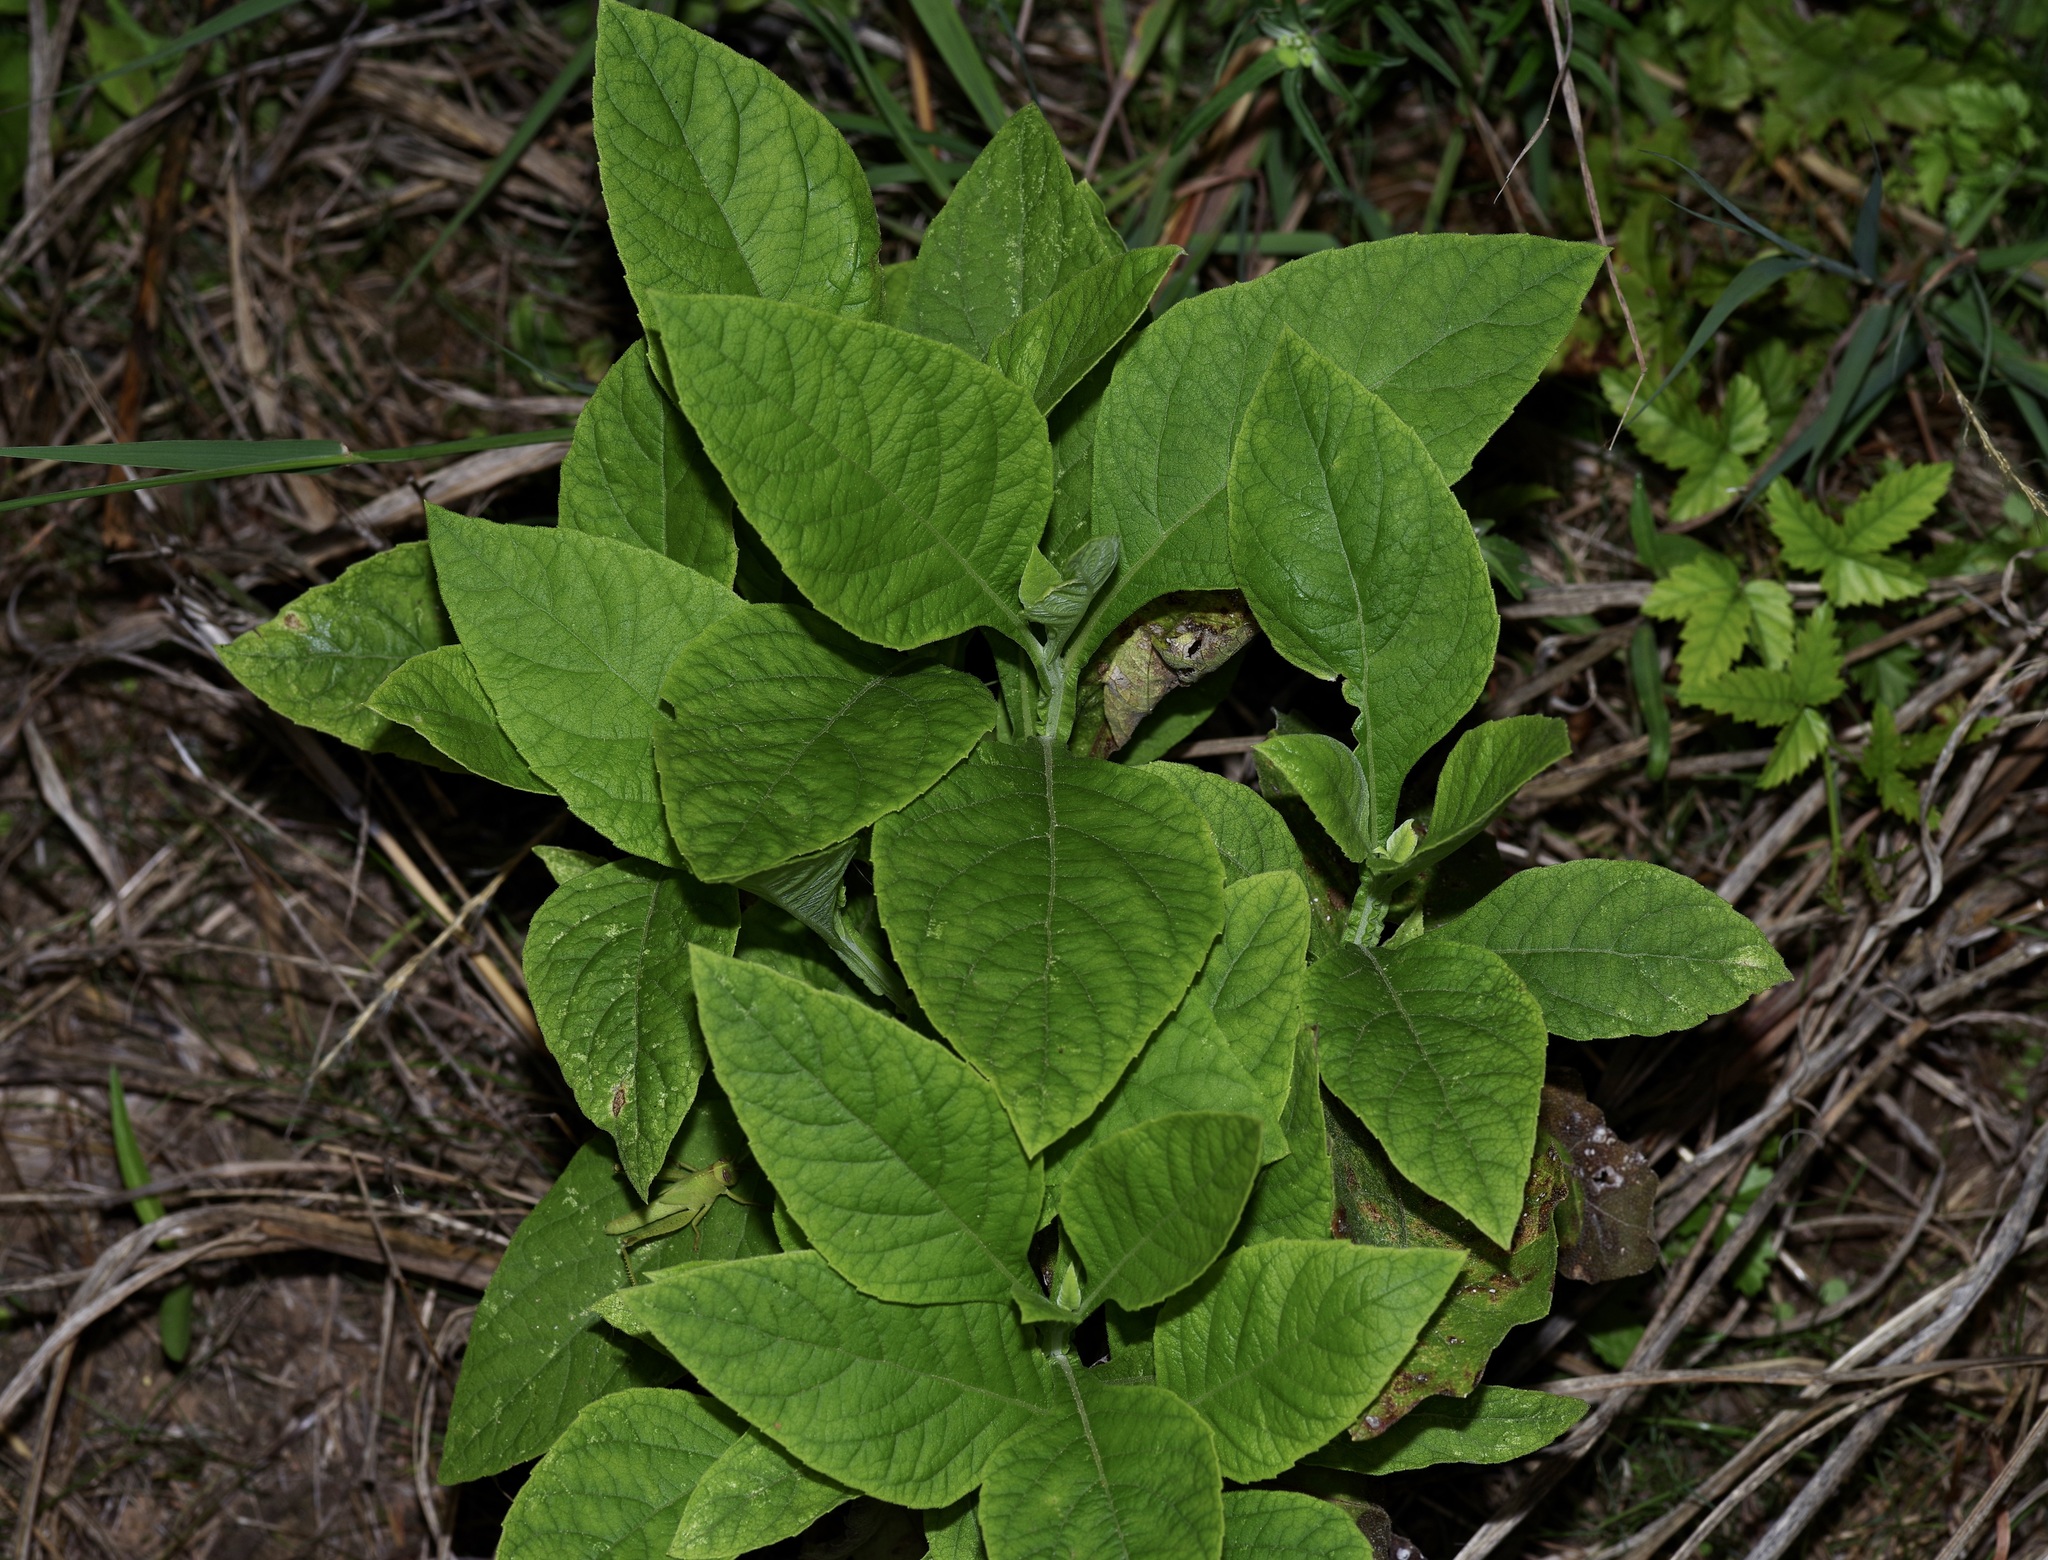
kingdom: Plantae
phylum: Tracheophyta
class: Magnoliopsida
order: Asterales
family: Asteraceae
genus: Verbesina
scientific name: Verbesina virginica
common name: Frostweed
